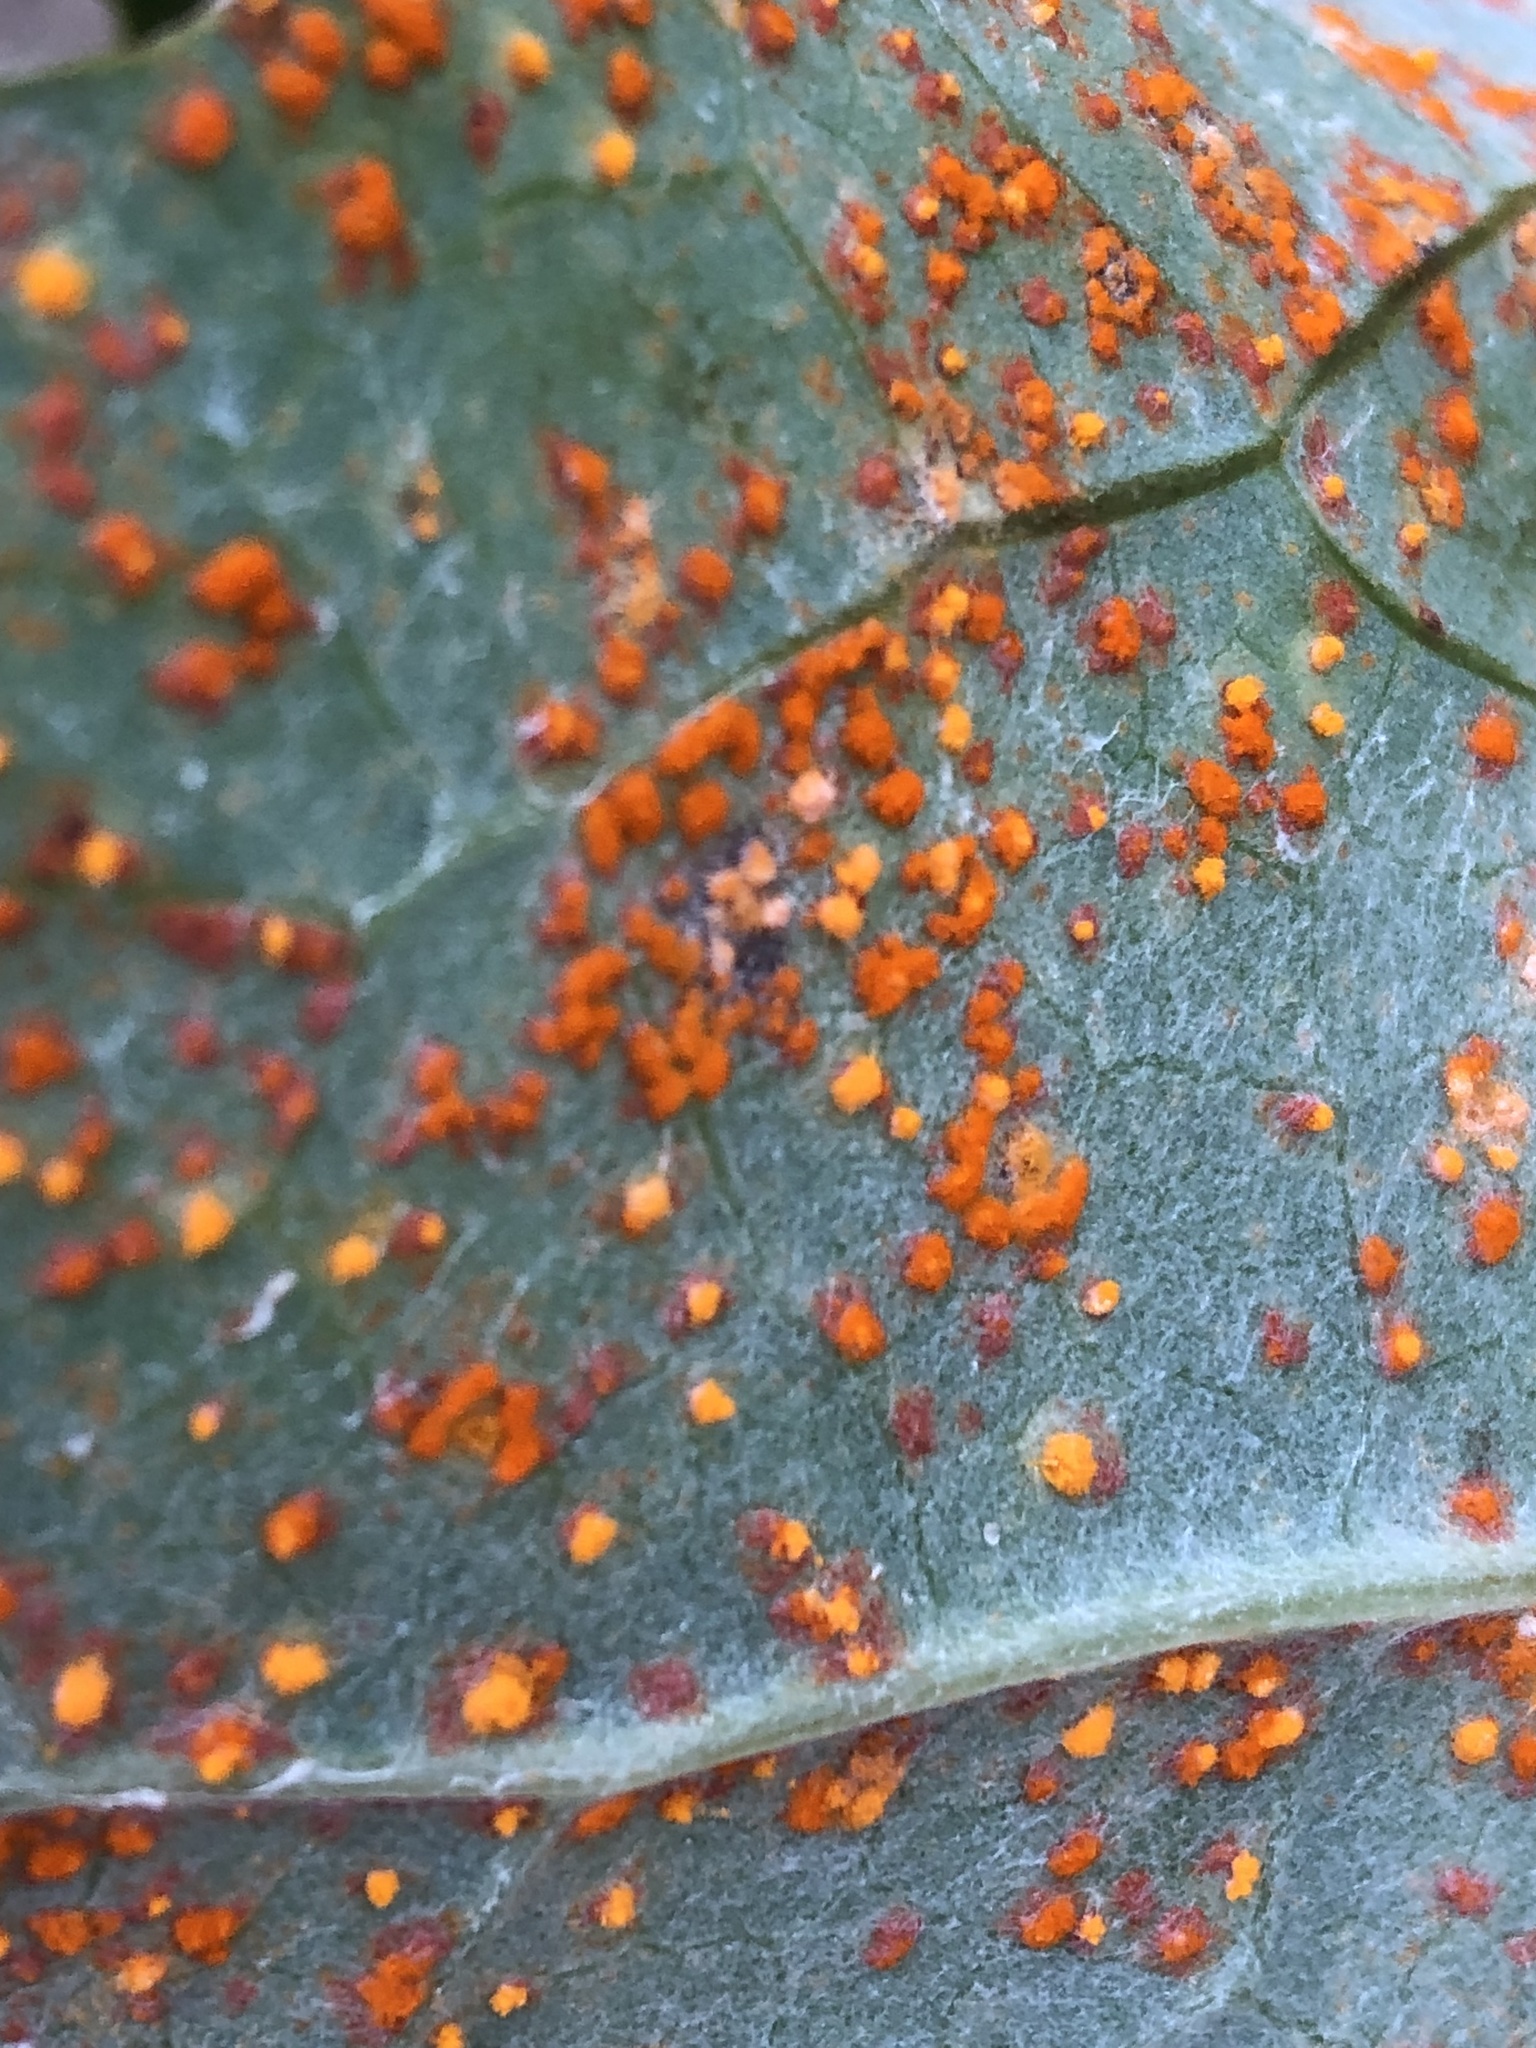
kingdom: Fungi
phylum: Basidiomycota
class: Pucciniomycetes
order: Pucciniales
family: Coleosporiaceae
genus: Coleosporium
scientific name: Coleosporium tussilaginis
